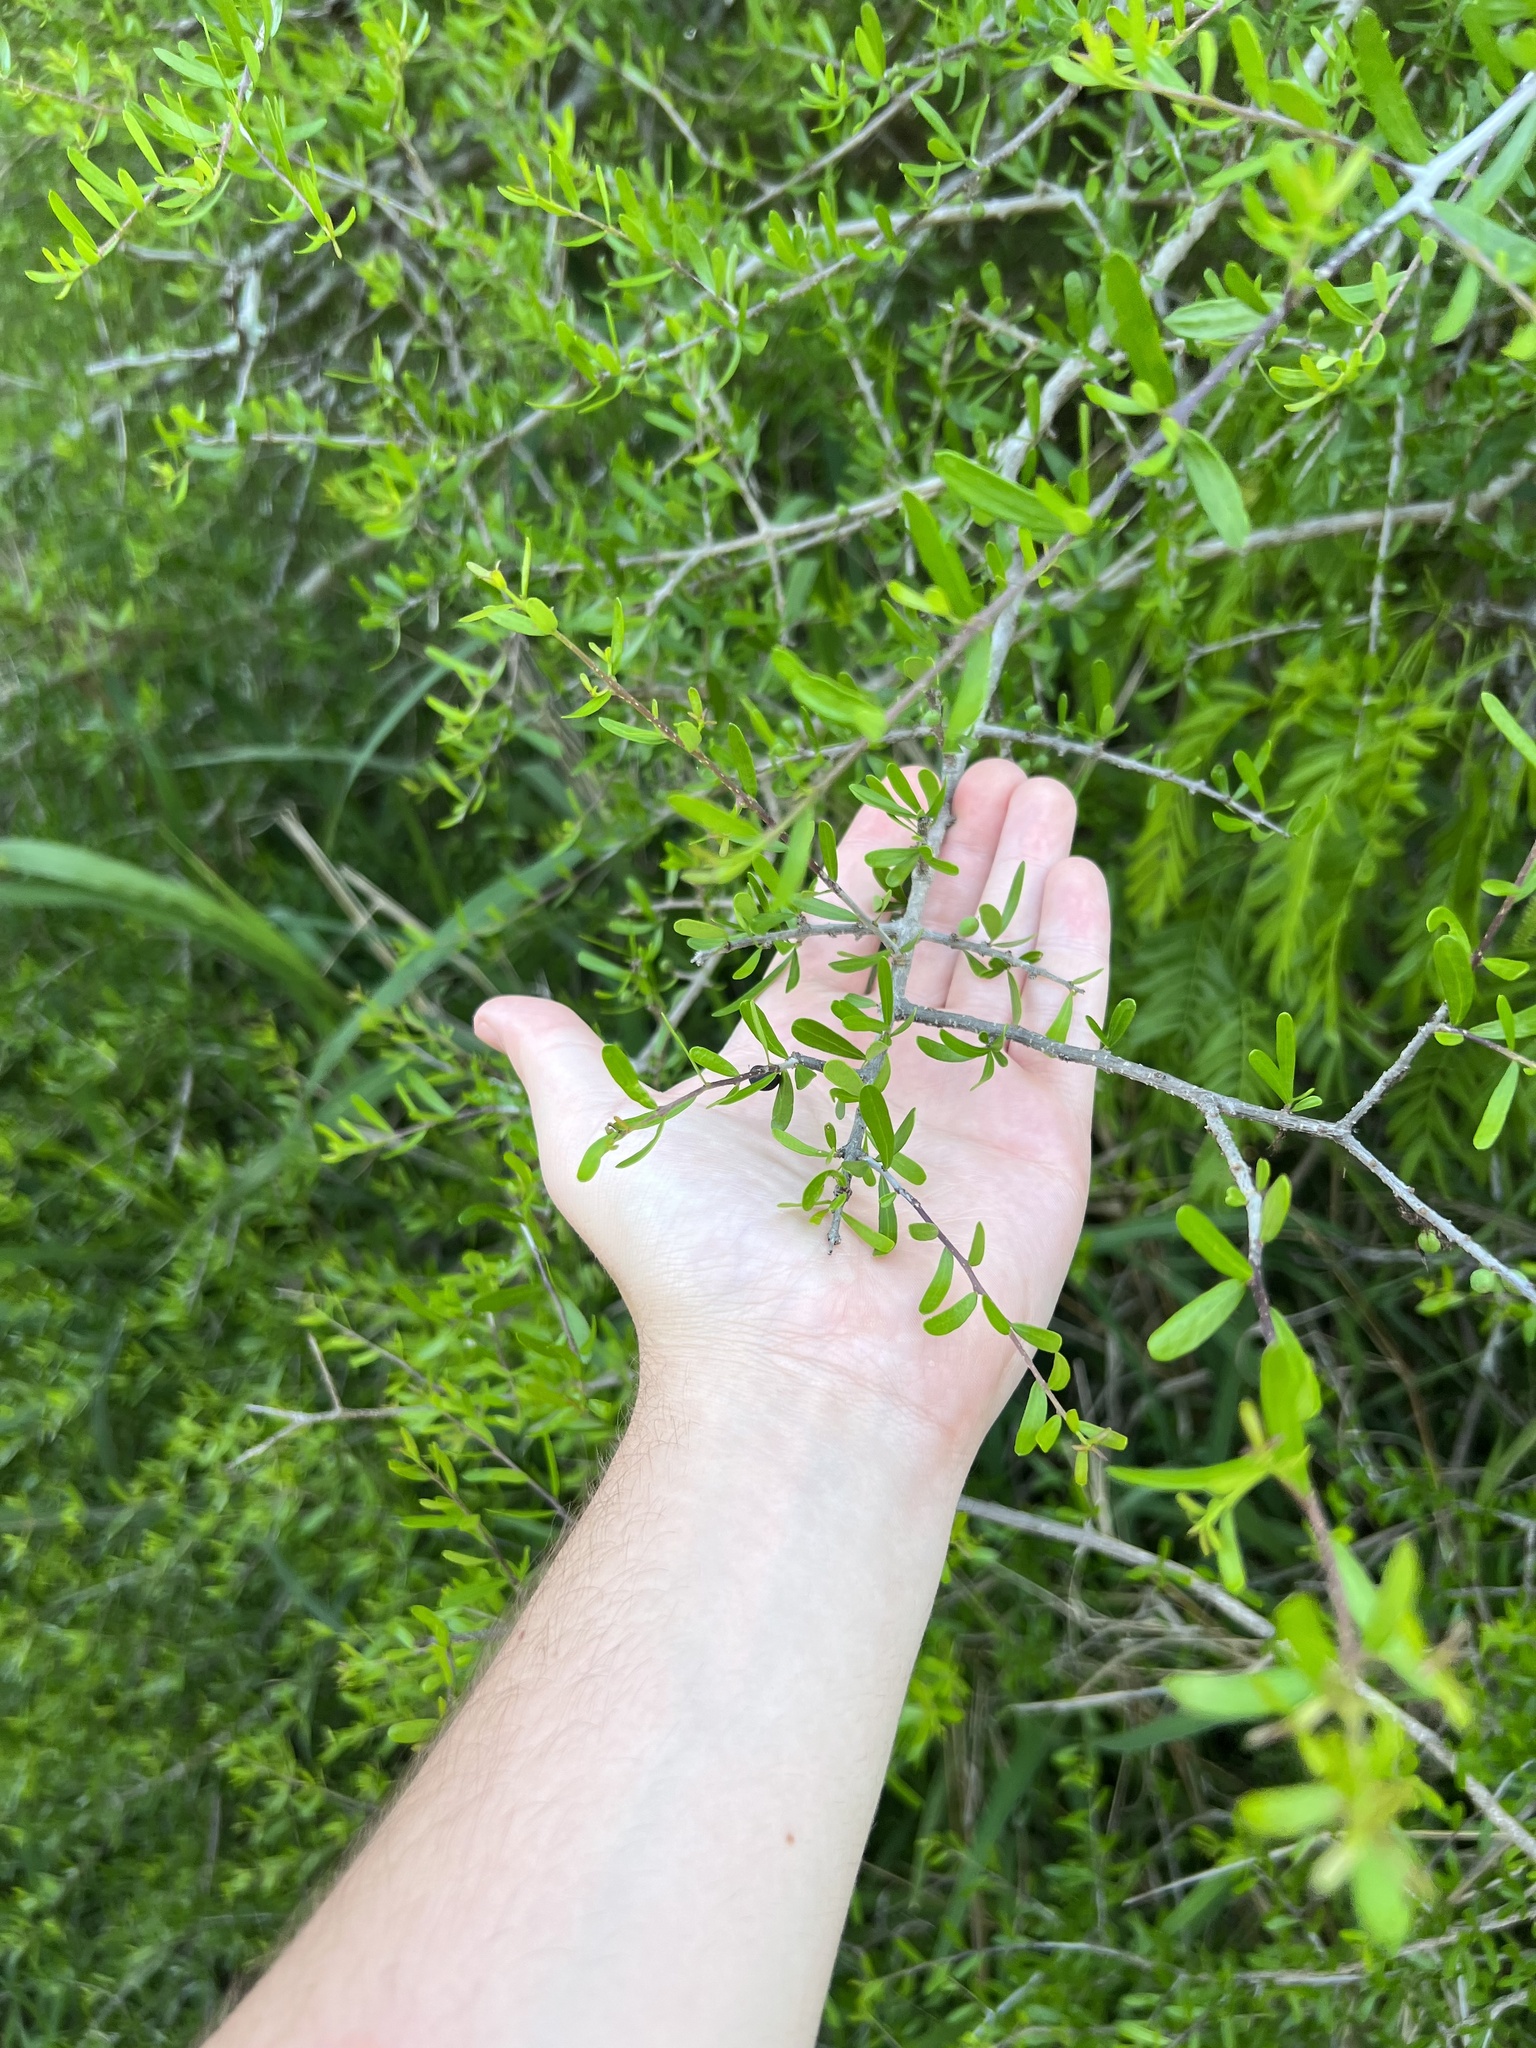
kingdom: Plantae
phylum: Tracheophyta
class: Magnoliopsida
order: Lamiales
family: Oleaceae
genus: Forestiera
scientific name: Forestiera angustifolia
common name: Elbowbush
